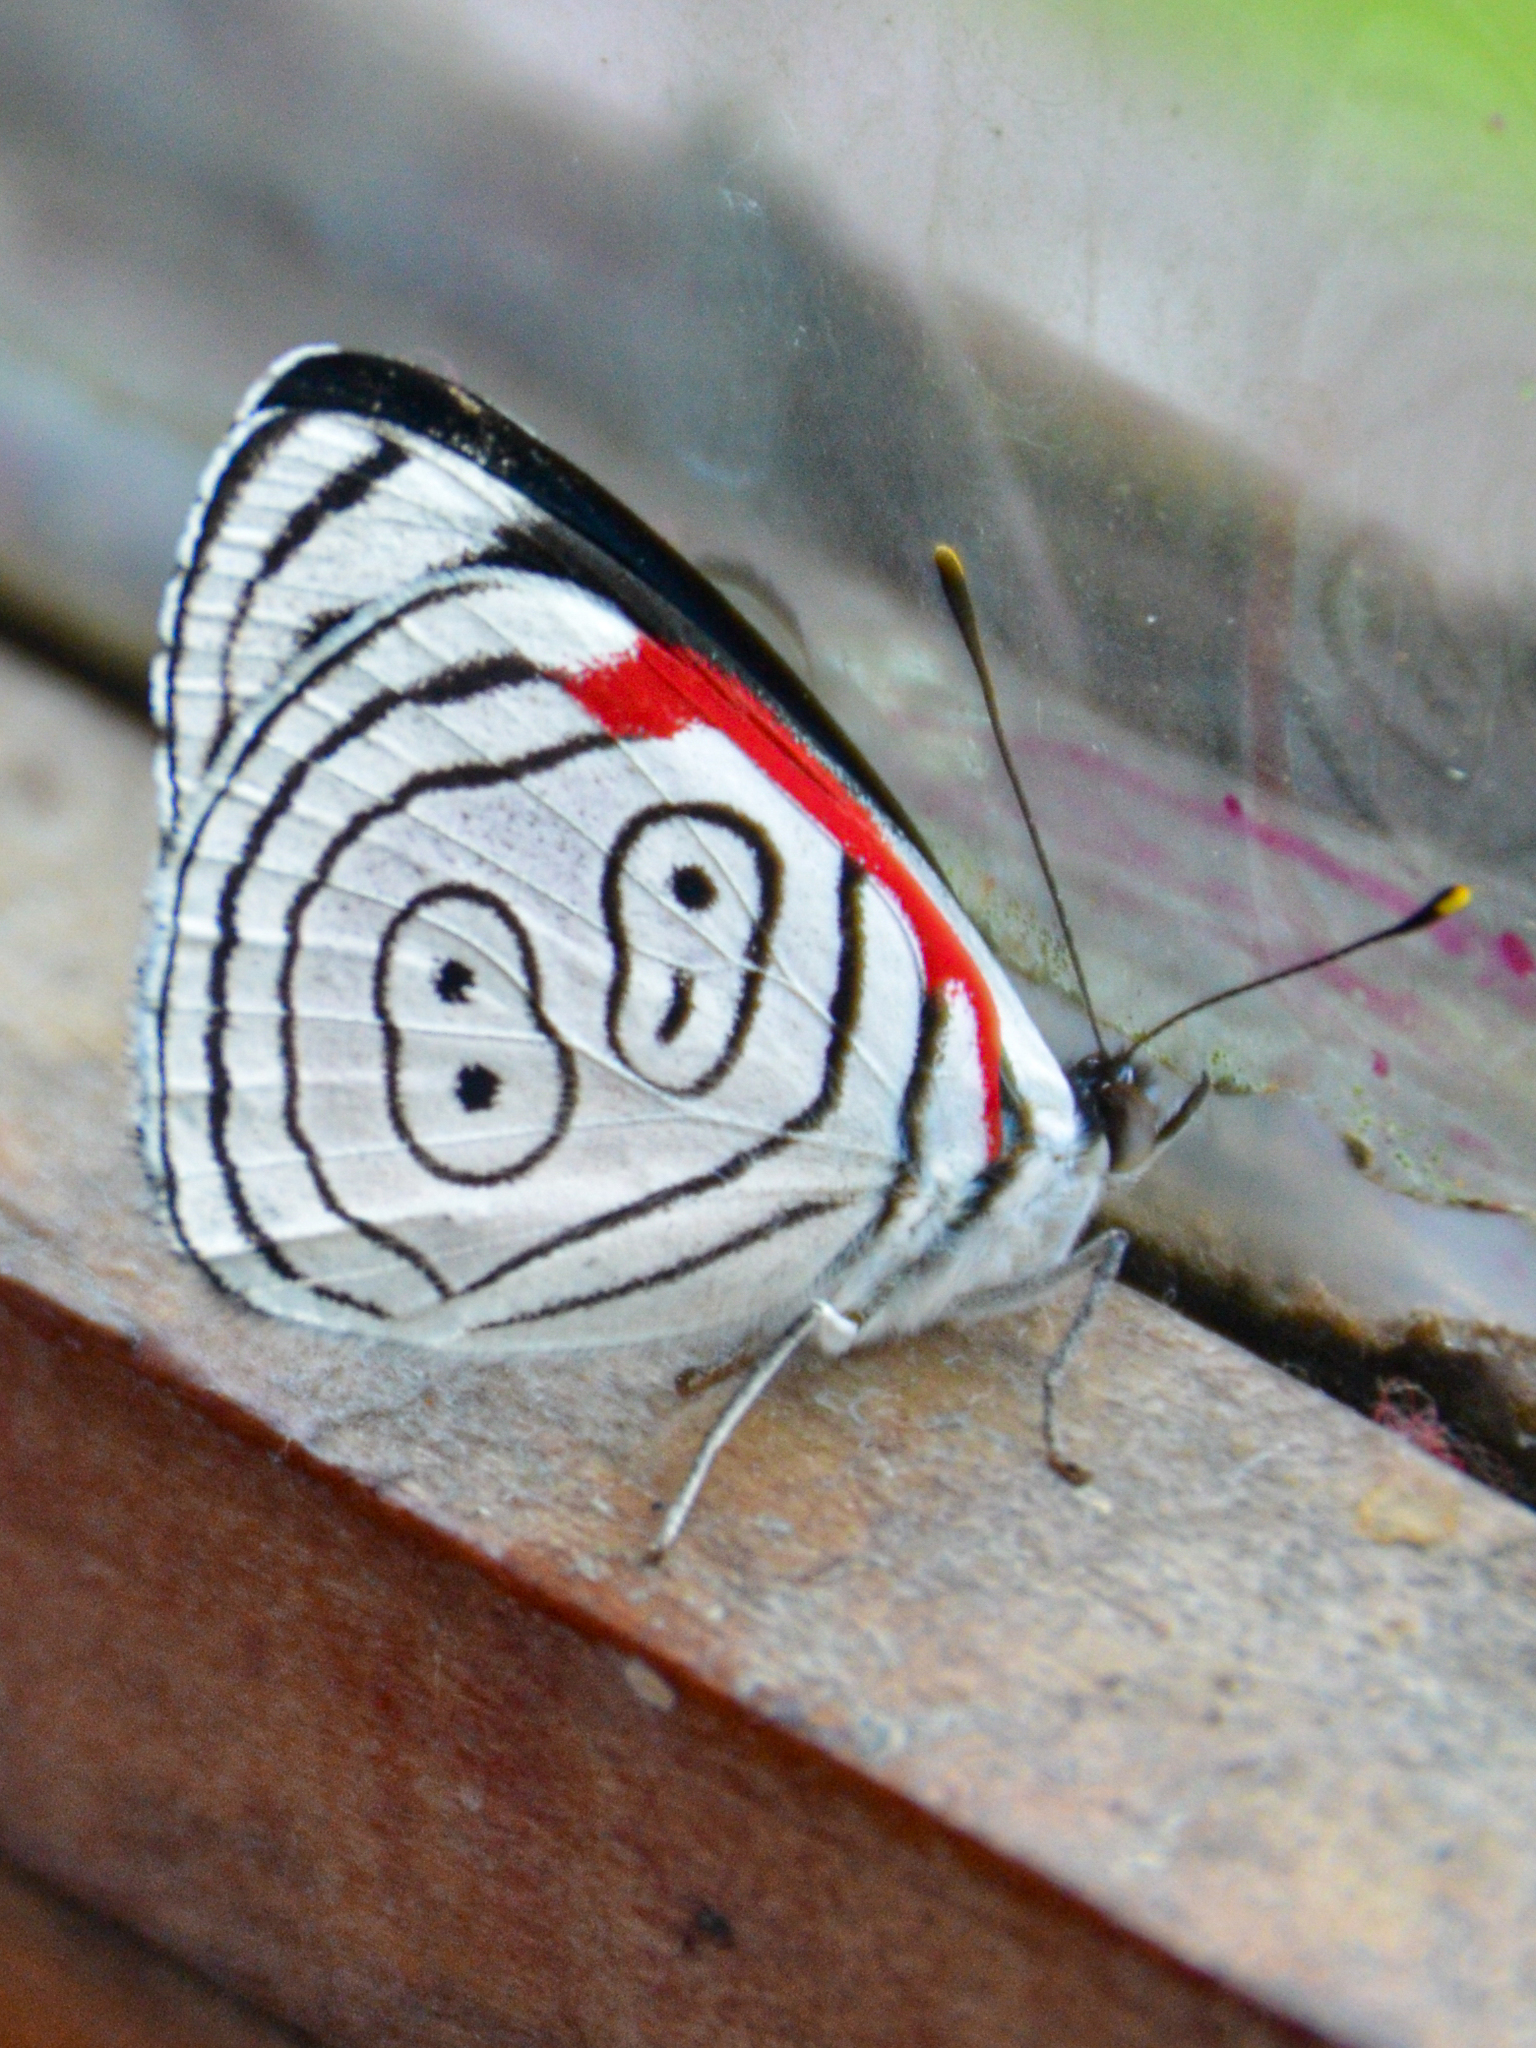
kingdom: Animalia
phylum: Arthropoda
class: Insecta
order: Lepidoptera
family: Nymphalidae
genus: Diaethria
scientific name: Diaethria anna
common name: Anna’s eighty-eight
